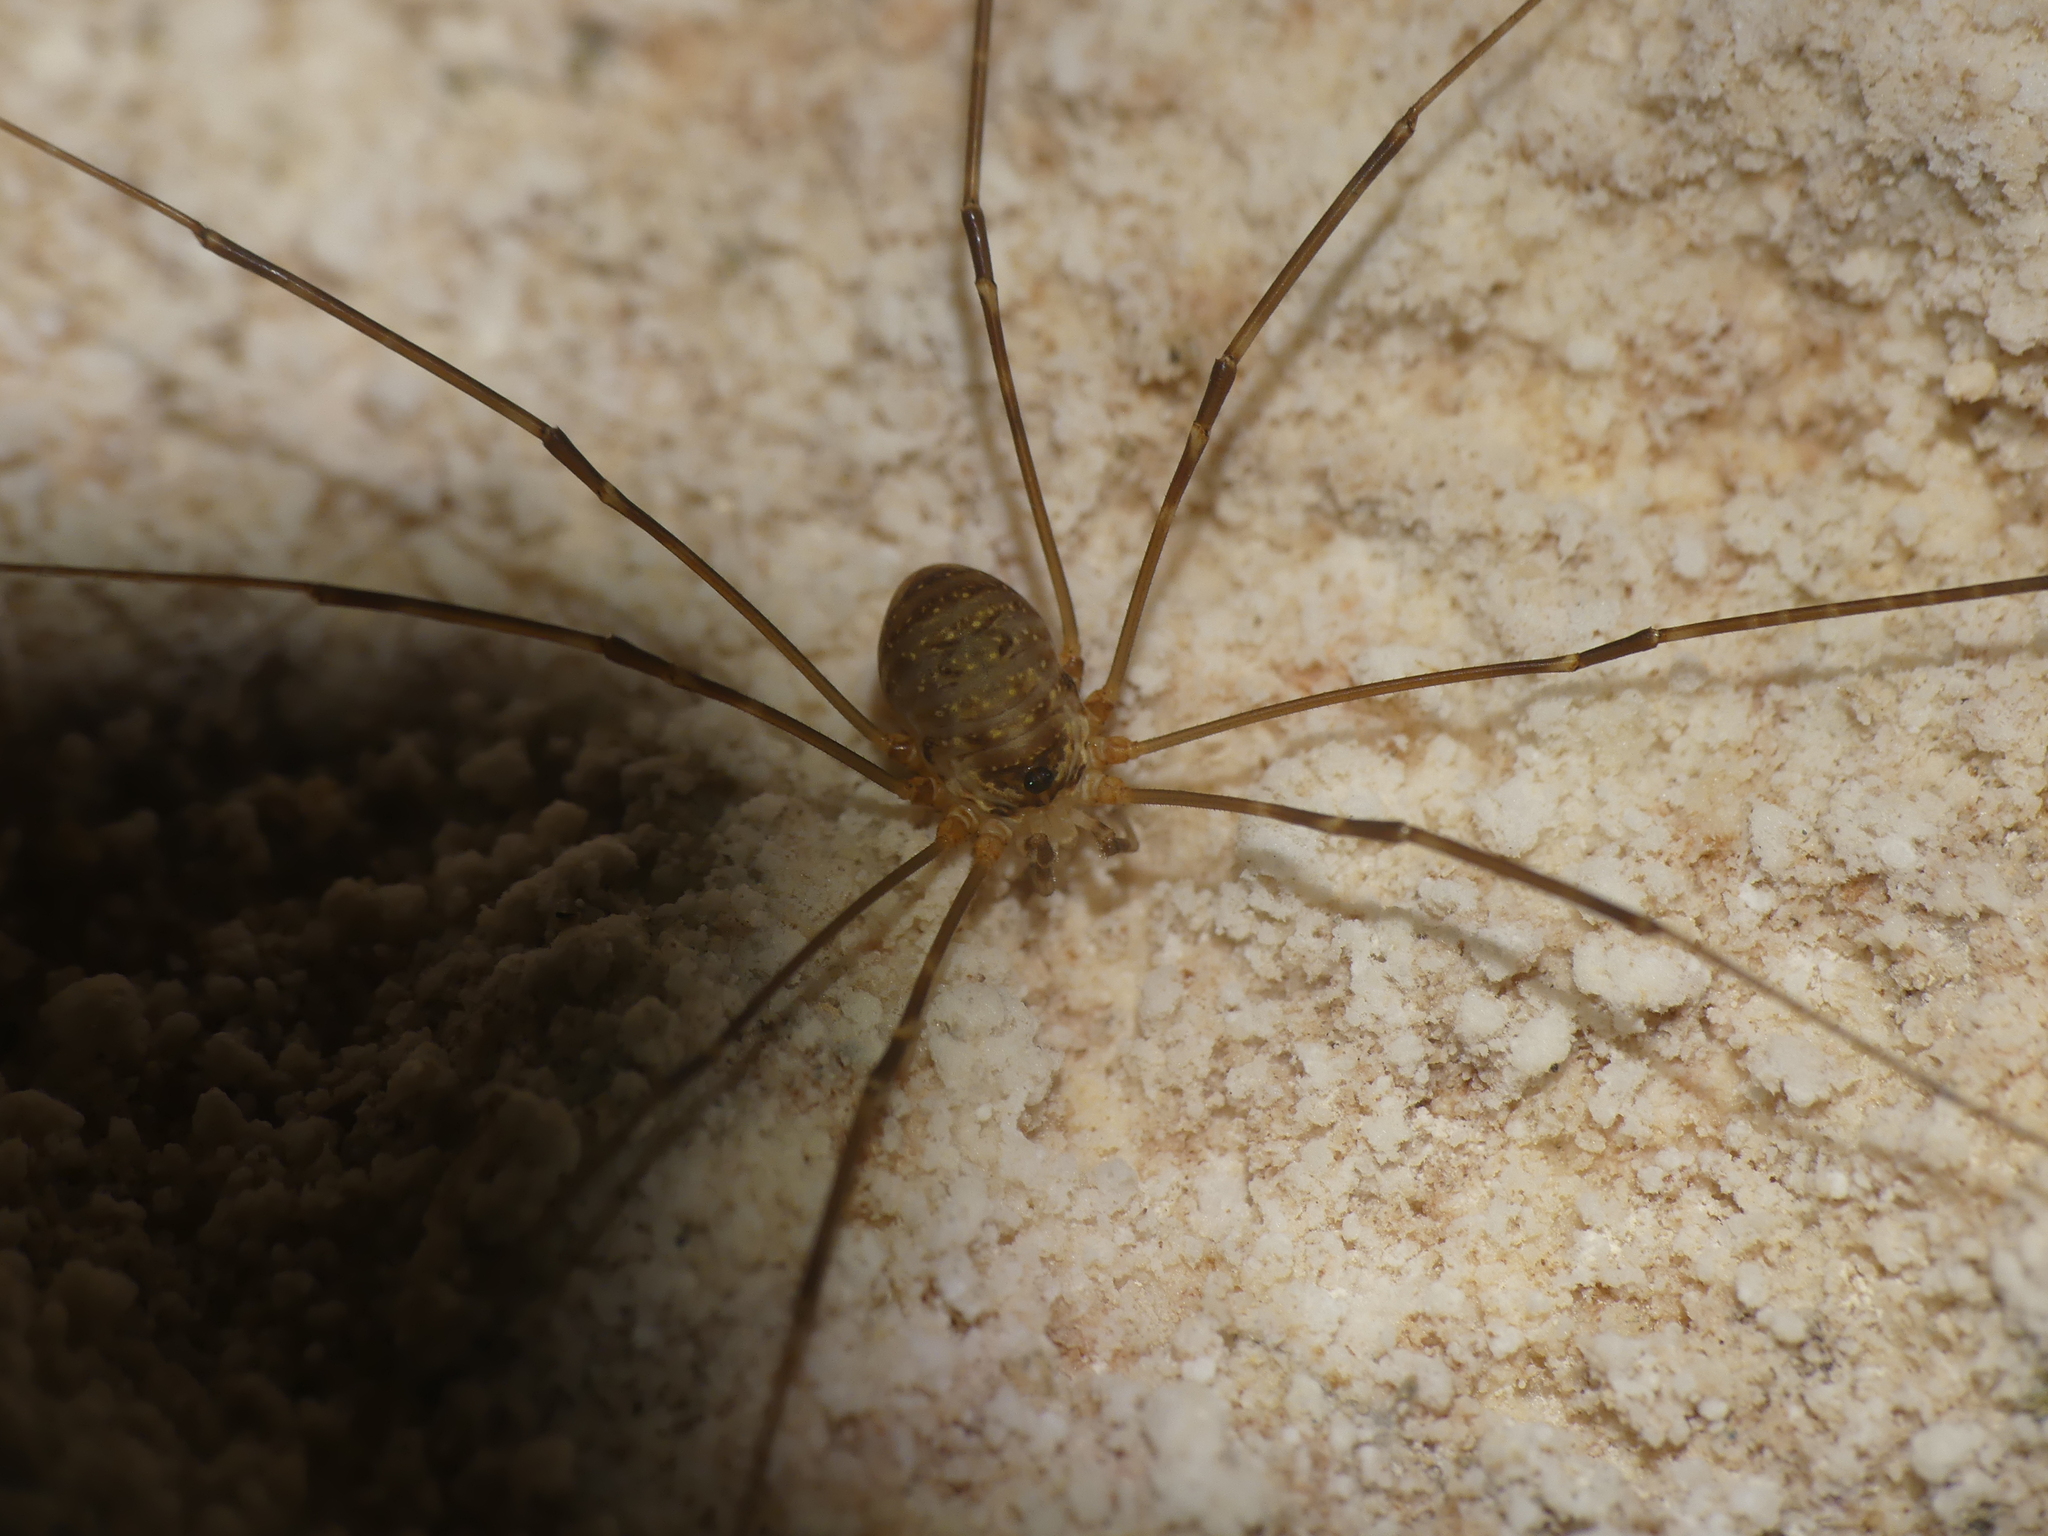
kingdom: Animalia
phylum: Arthropoda
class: Arachnida
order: Opiliones
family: Phalangiidae
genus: Amilenus
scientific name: Amilenus aurantiacus
